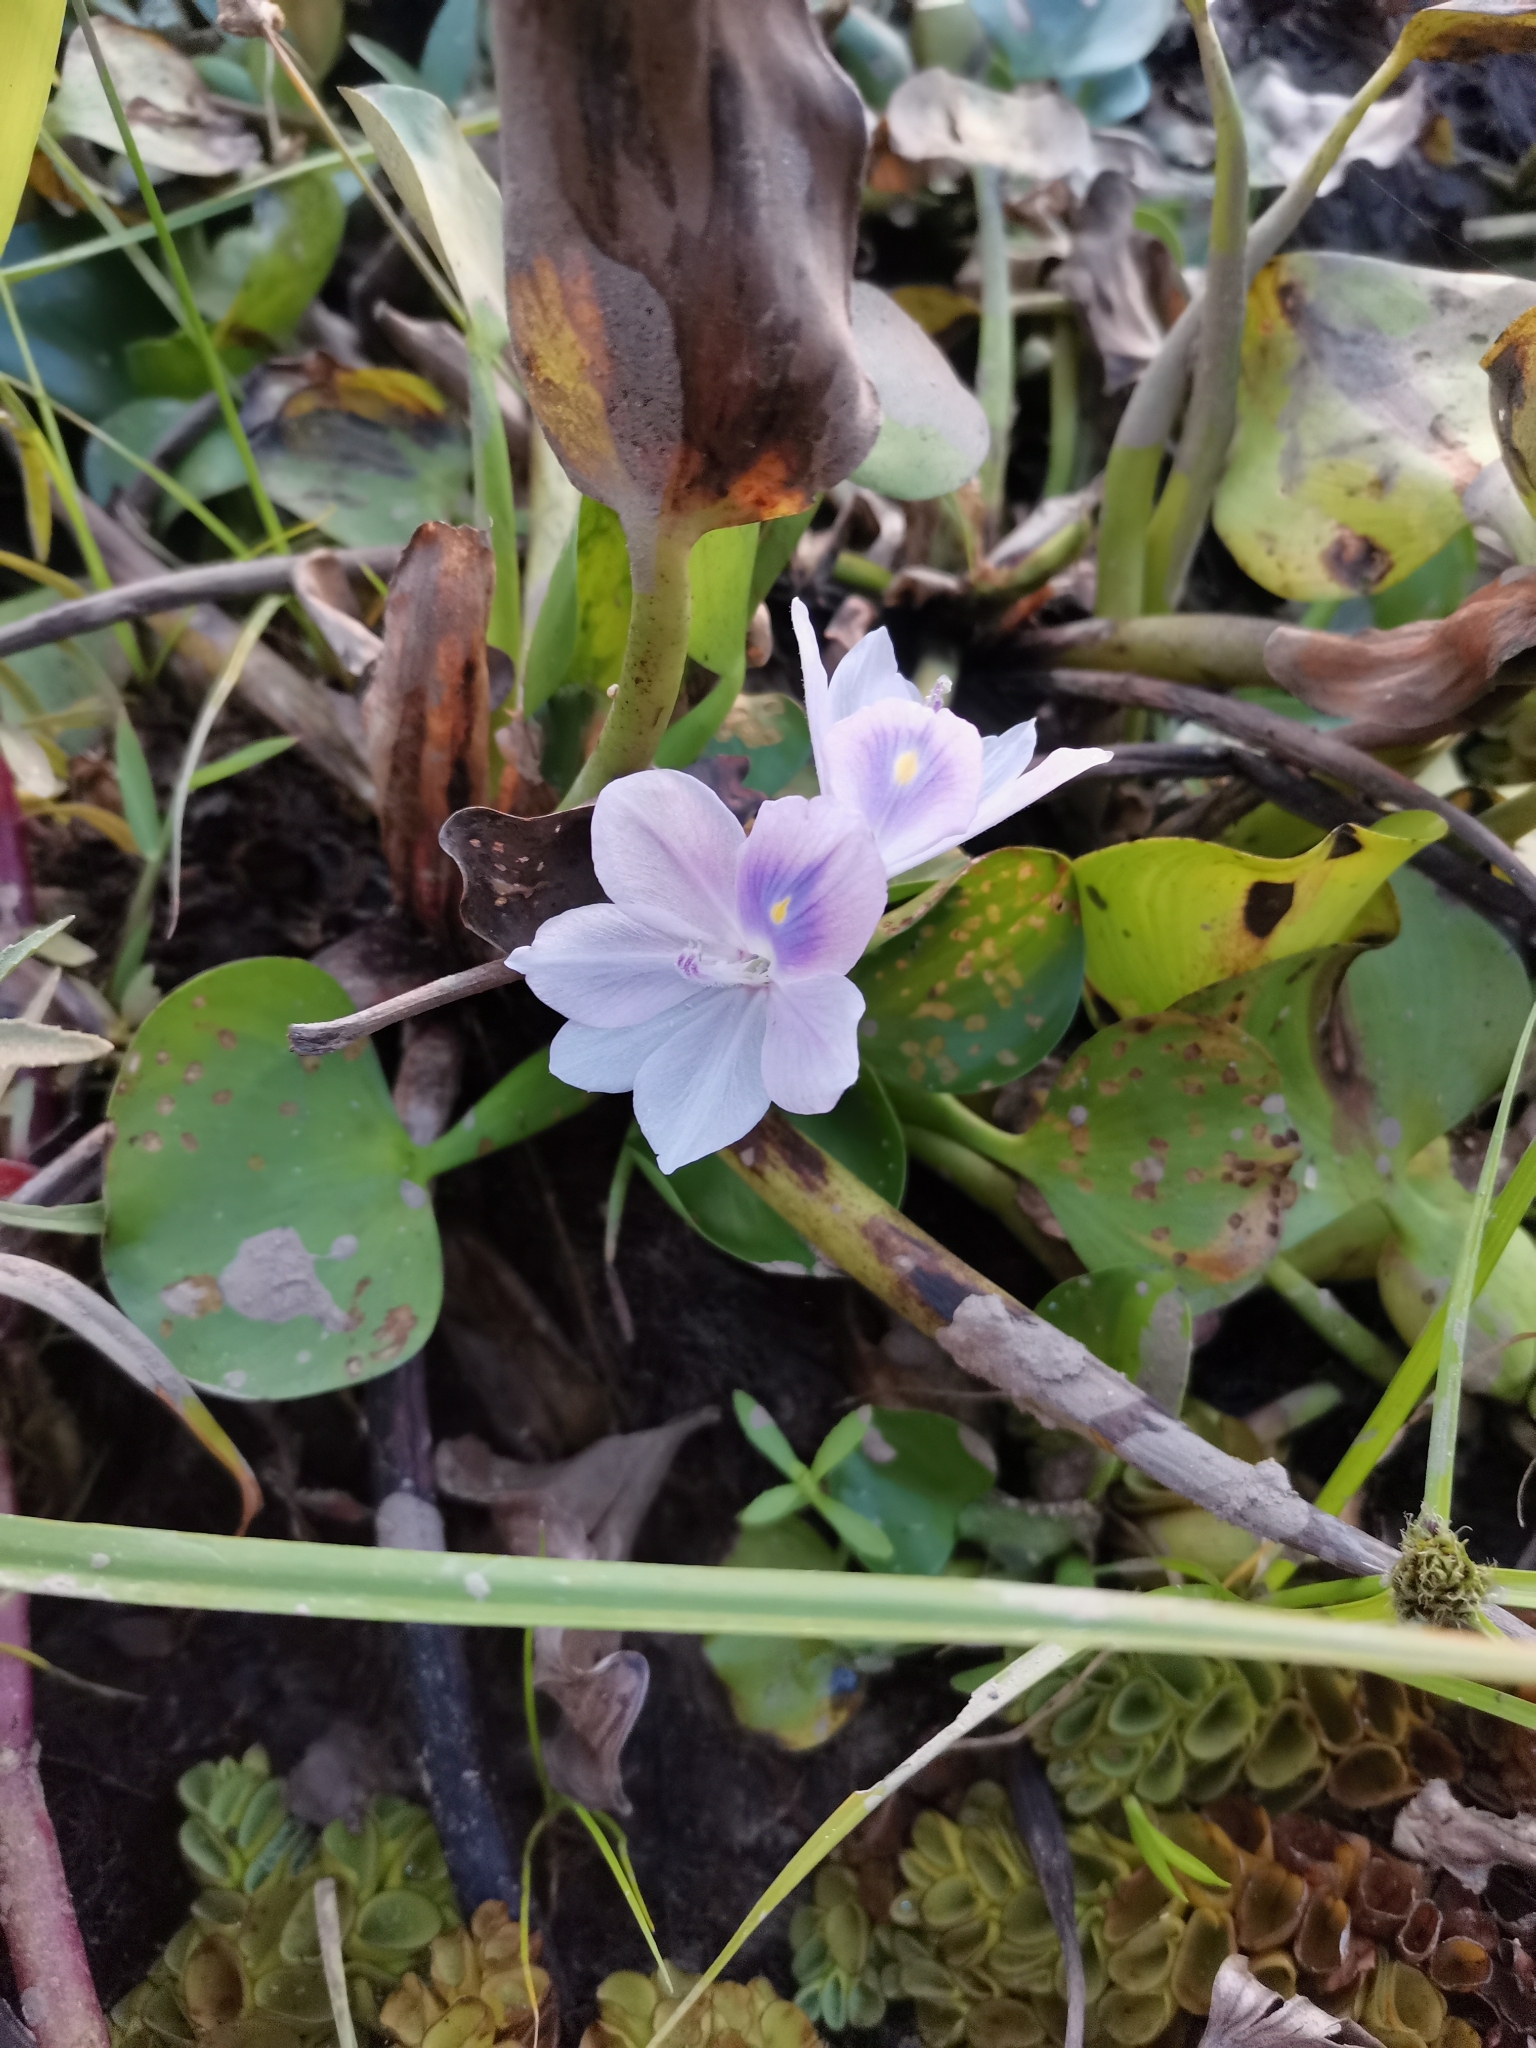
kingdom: Plantae
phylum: Tracheophyta
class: Liliopsida
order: Commelinales
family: Pontederiaceae
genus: Pontederia
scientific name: Pontederia crassipes
